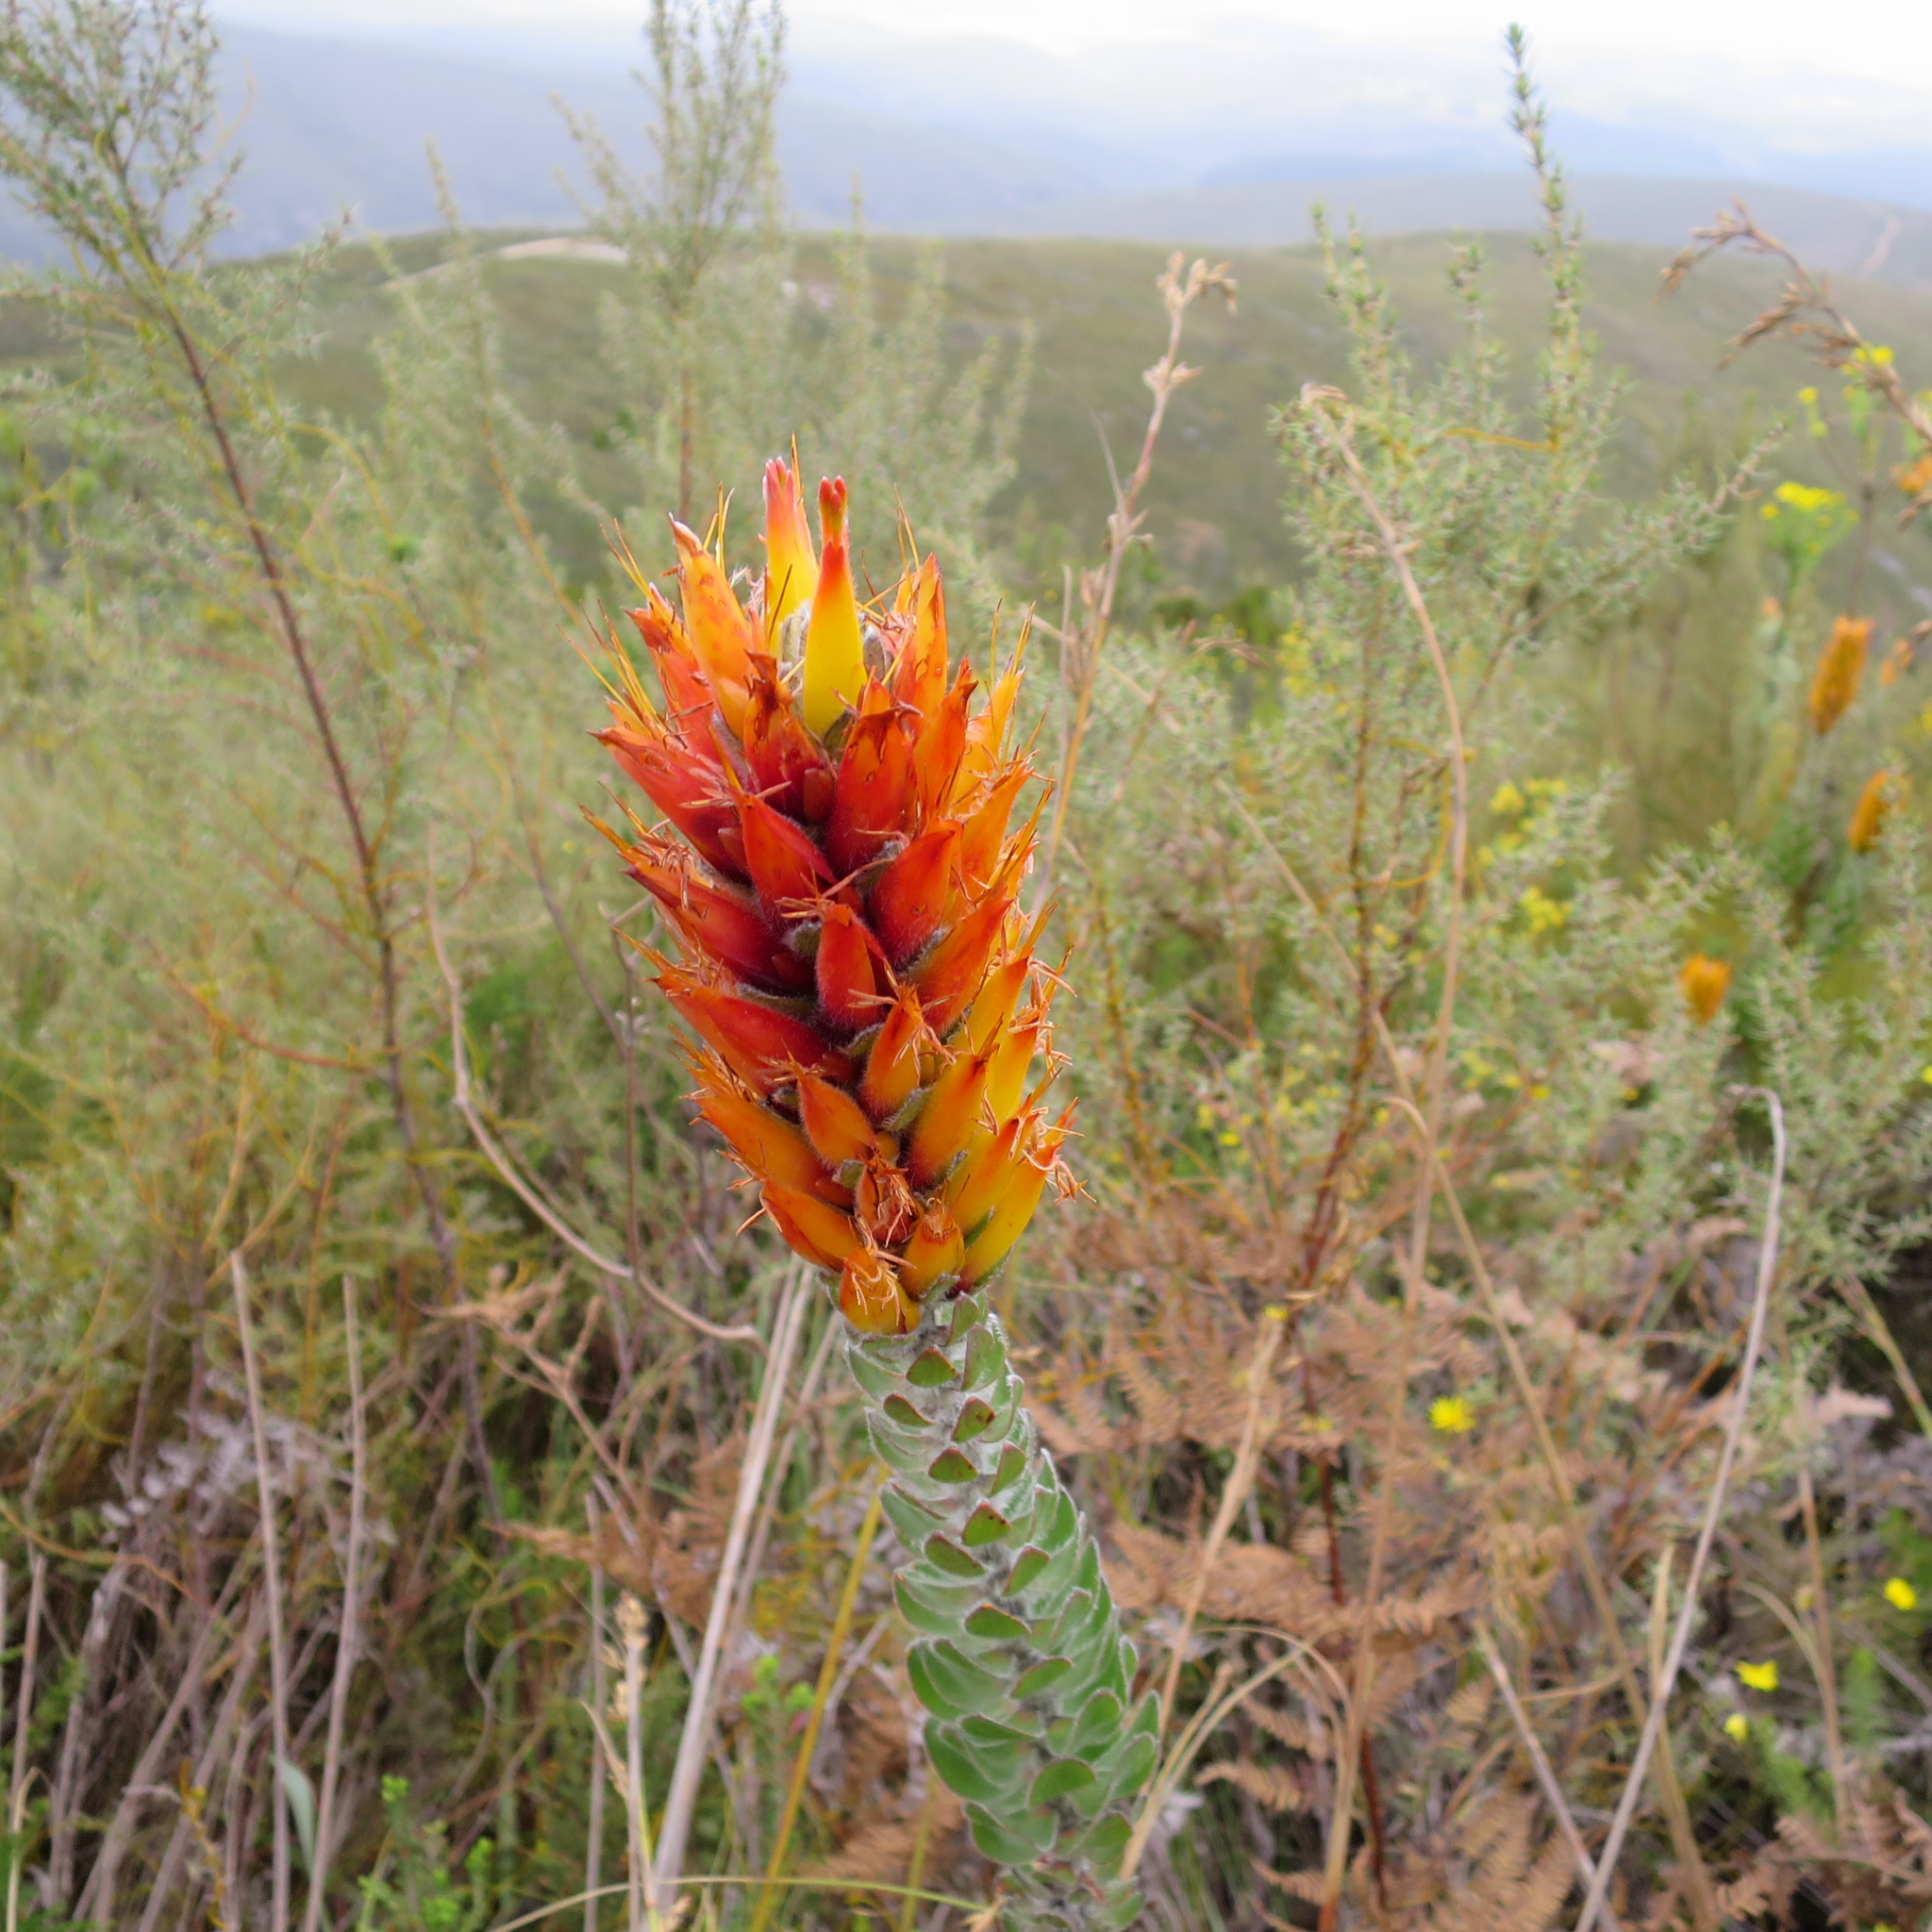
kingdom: Plantae
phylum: Tracheophyta
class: Magnoliopsida
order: Proteales
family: Proteaceae
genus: Mimetes
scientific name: Mimetes pauciflora
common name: Three-flowered pagoda
